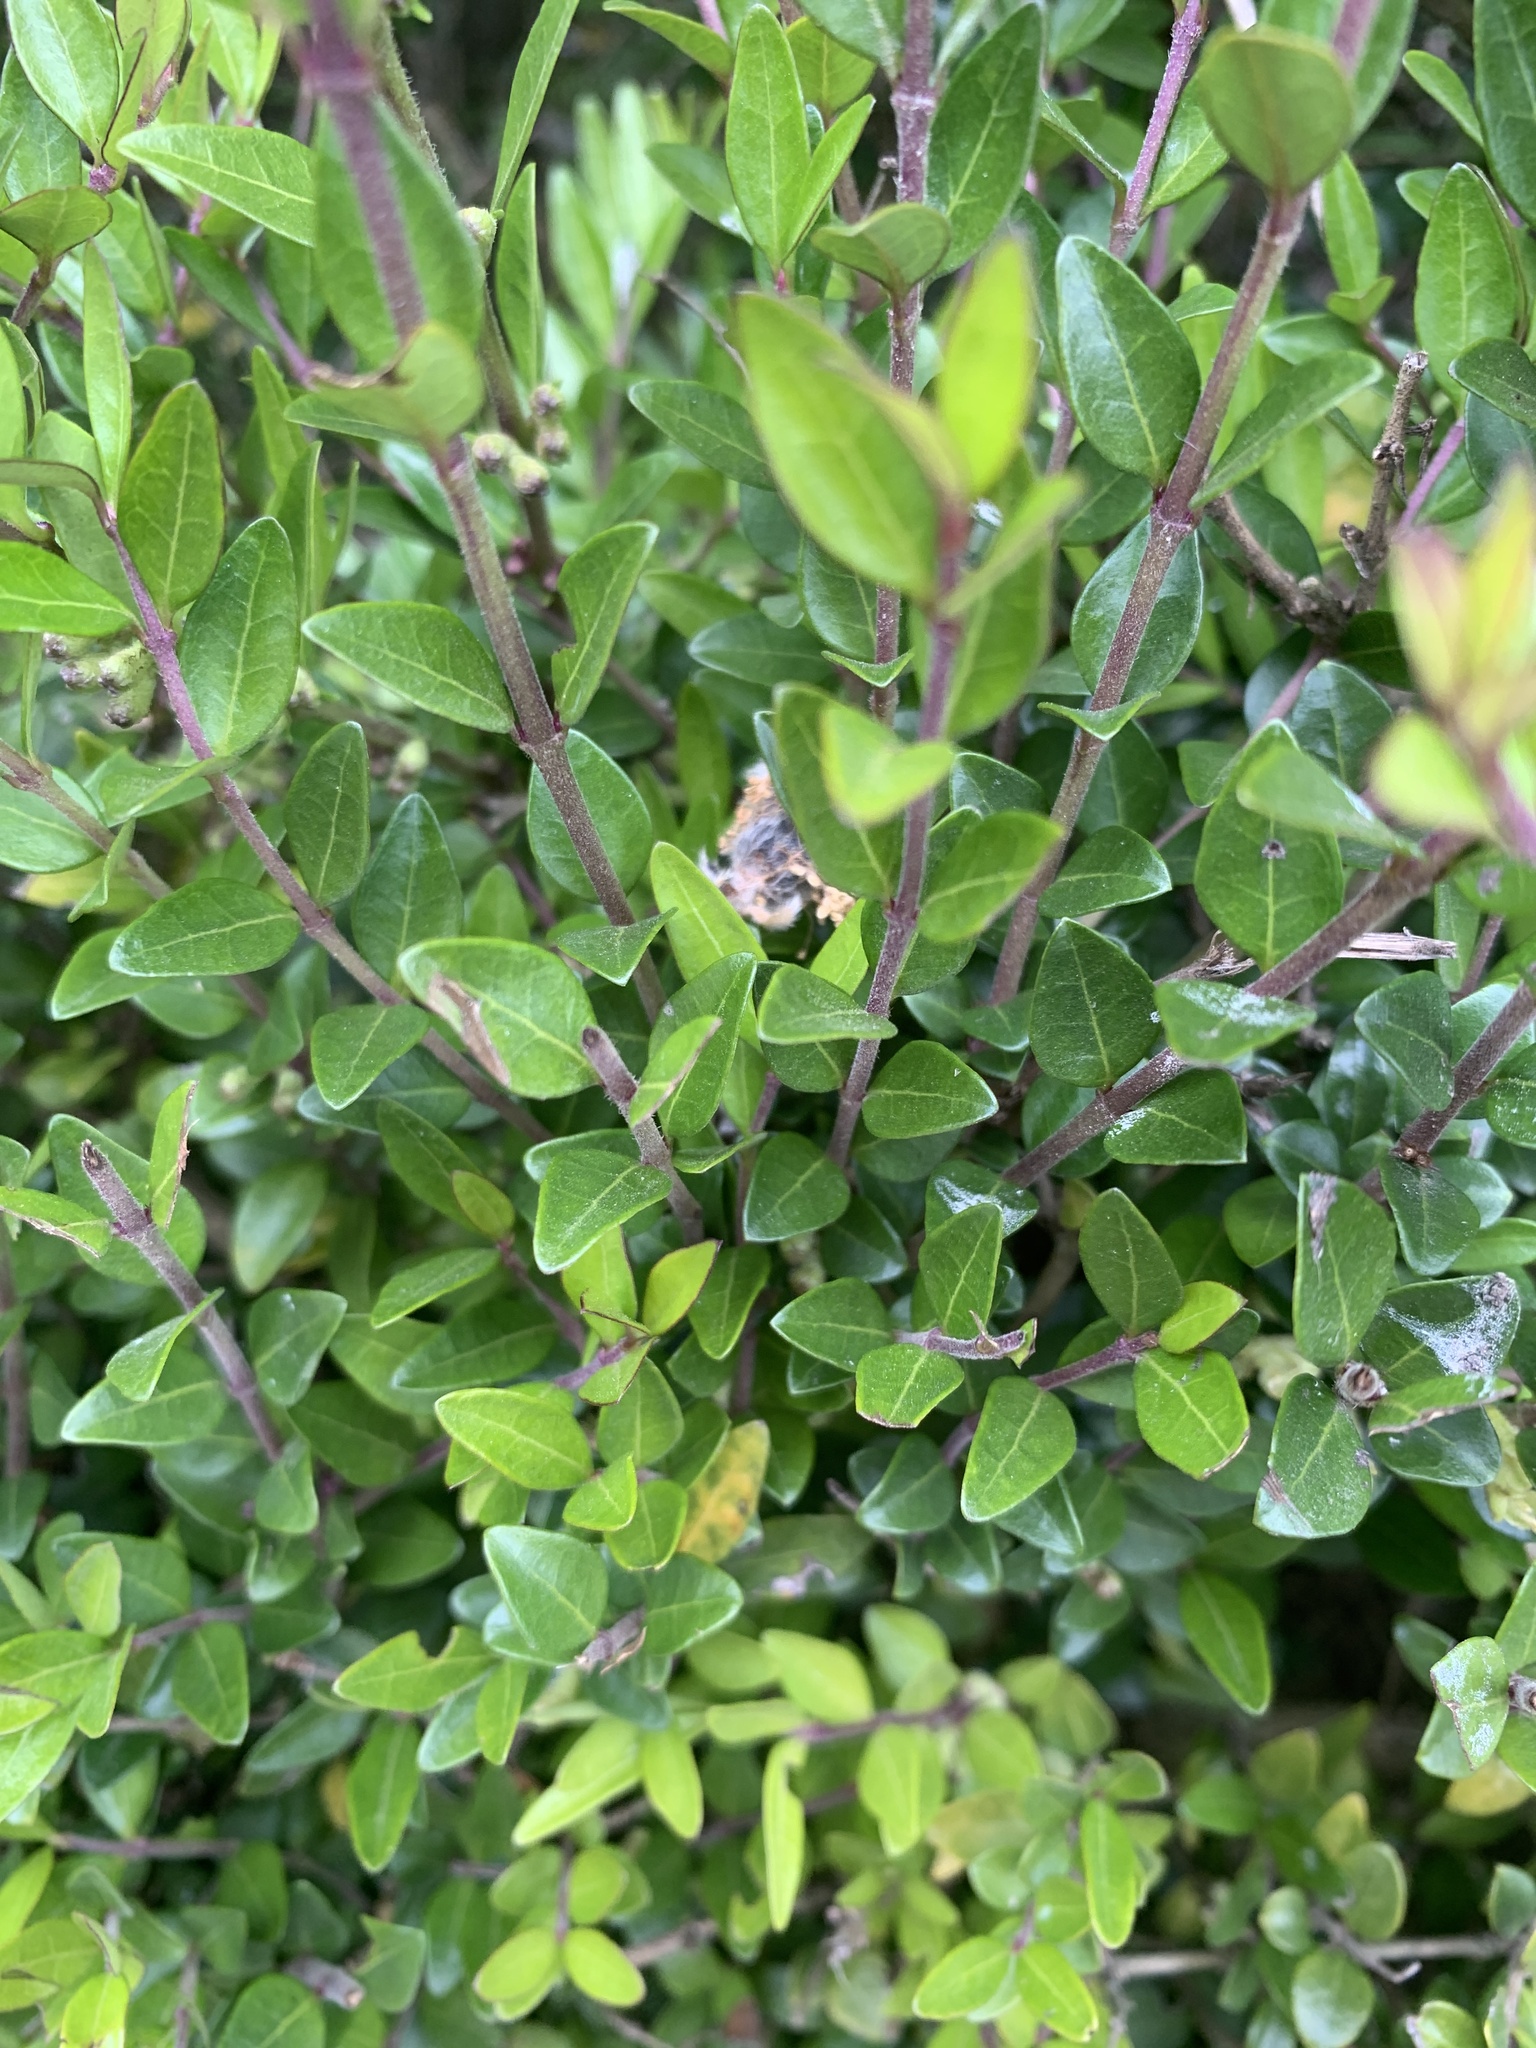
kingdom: Plantae
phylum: Tracheophyta
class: Magnoliopsida
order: Dipsacales
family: Caprifoliaceae
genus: Lonicera
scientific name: Lonicera ligustrina
